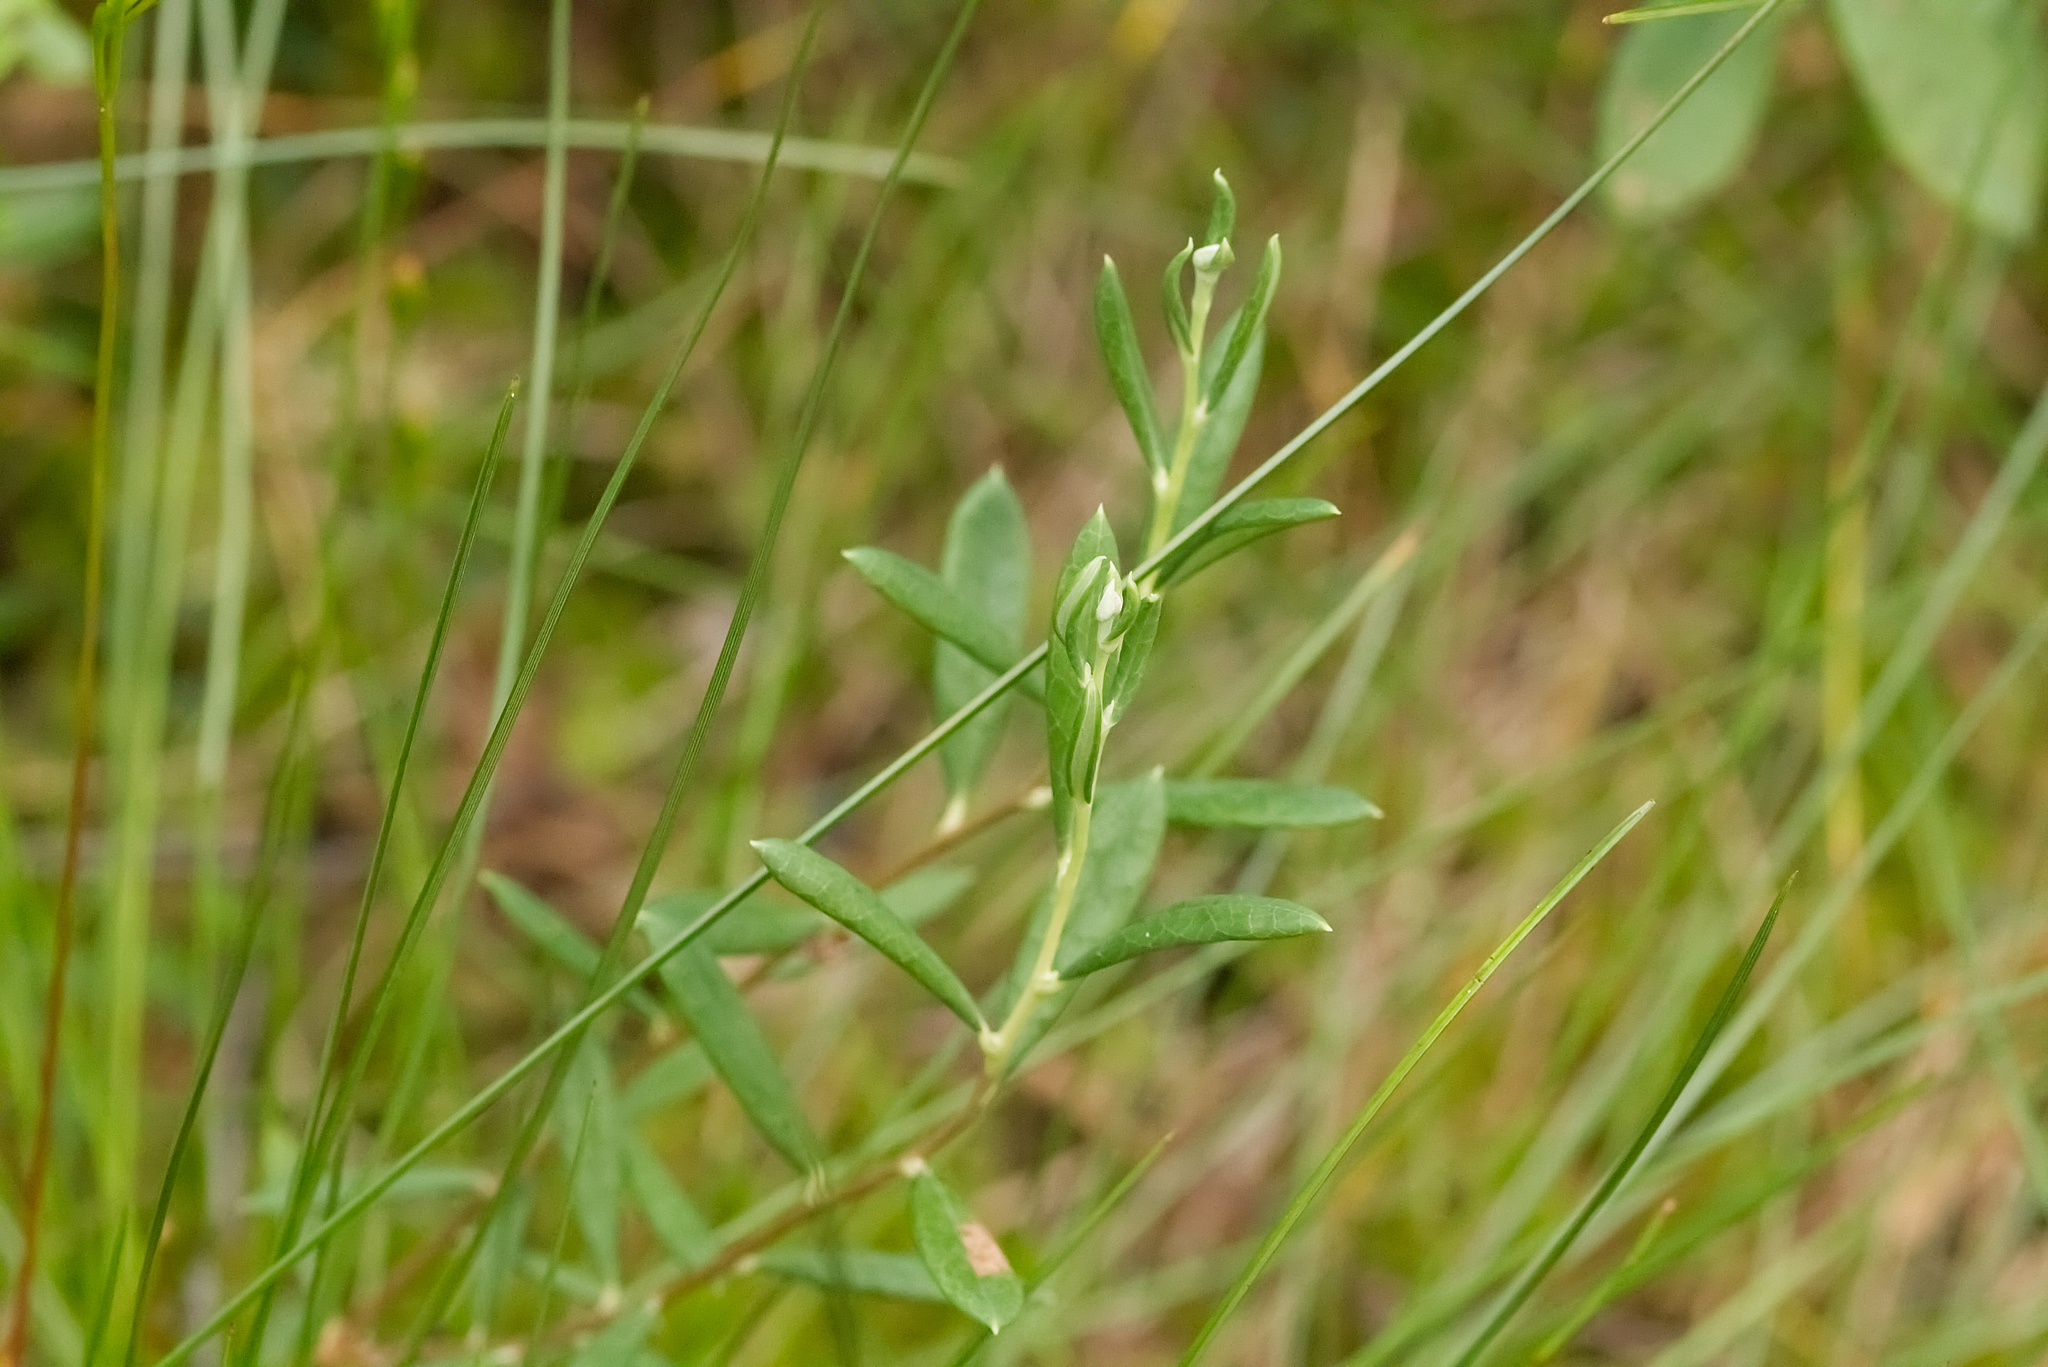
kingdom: Plantae
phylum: Tracheophyta
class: Magnoliopsida
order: Ericales
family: Ericaceae
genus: Andromeda
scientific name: Andromeda polifolia
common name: Bog-rosemary
